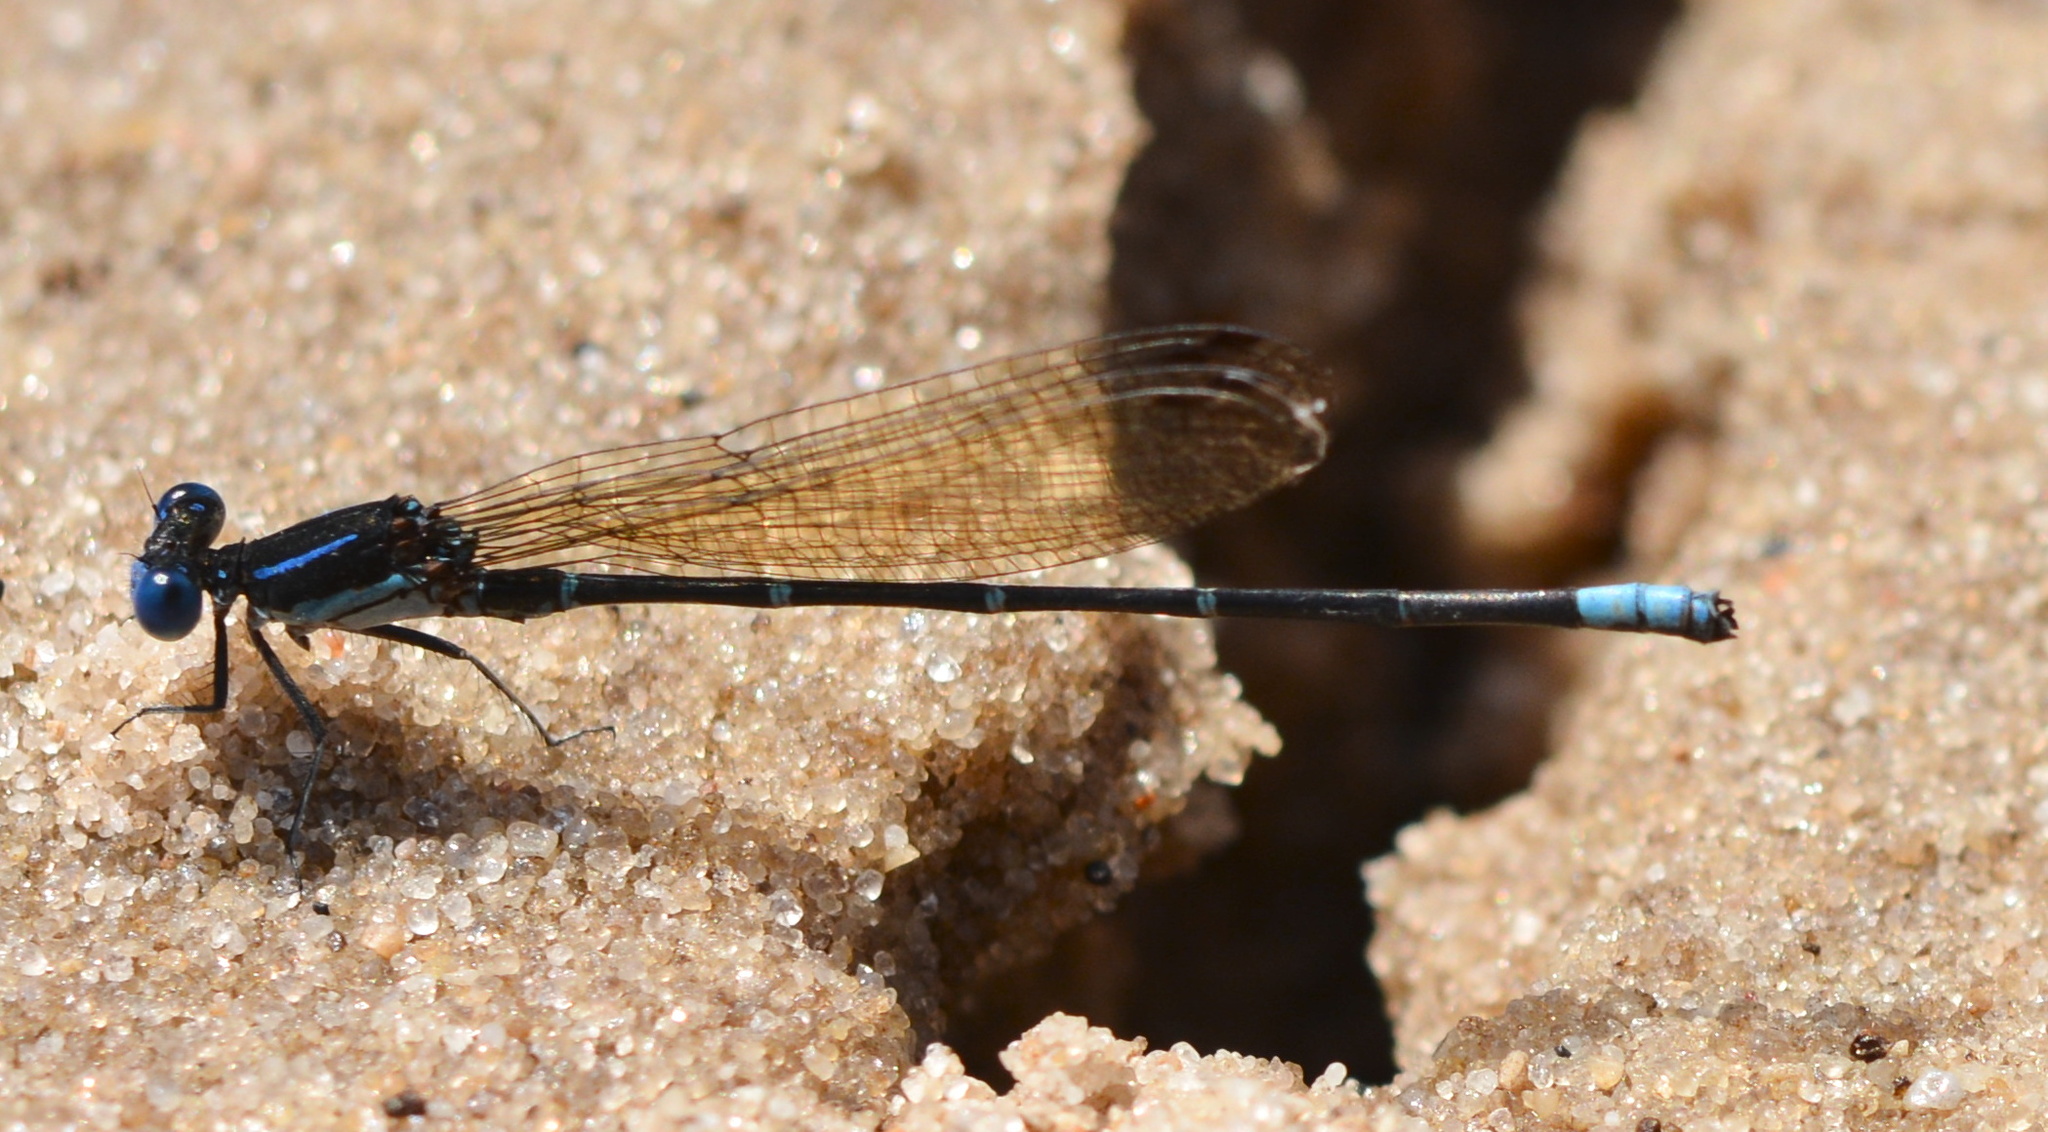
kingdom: Animalia
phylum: Arthropoda
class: Insecta
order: Odonata
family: Coenagrionidae
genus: Argia
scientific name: Argia sedula
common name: Blue-ringed dancer
